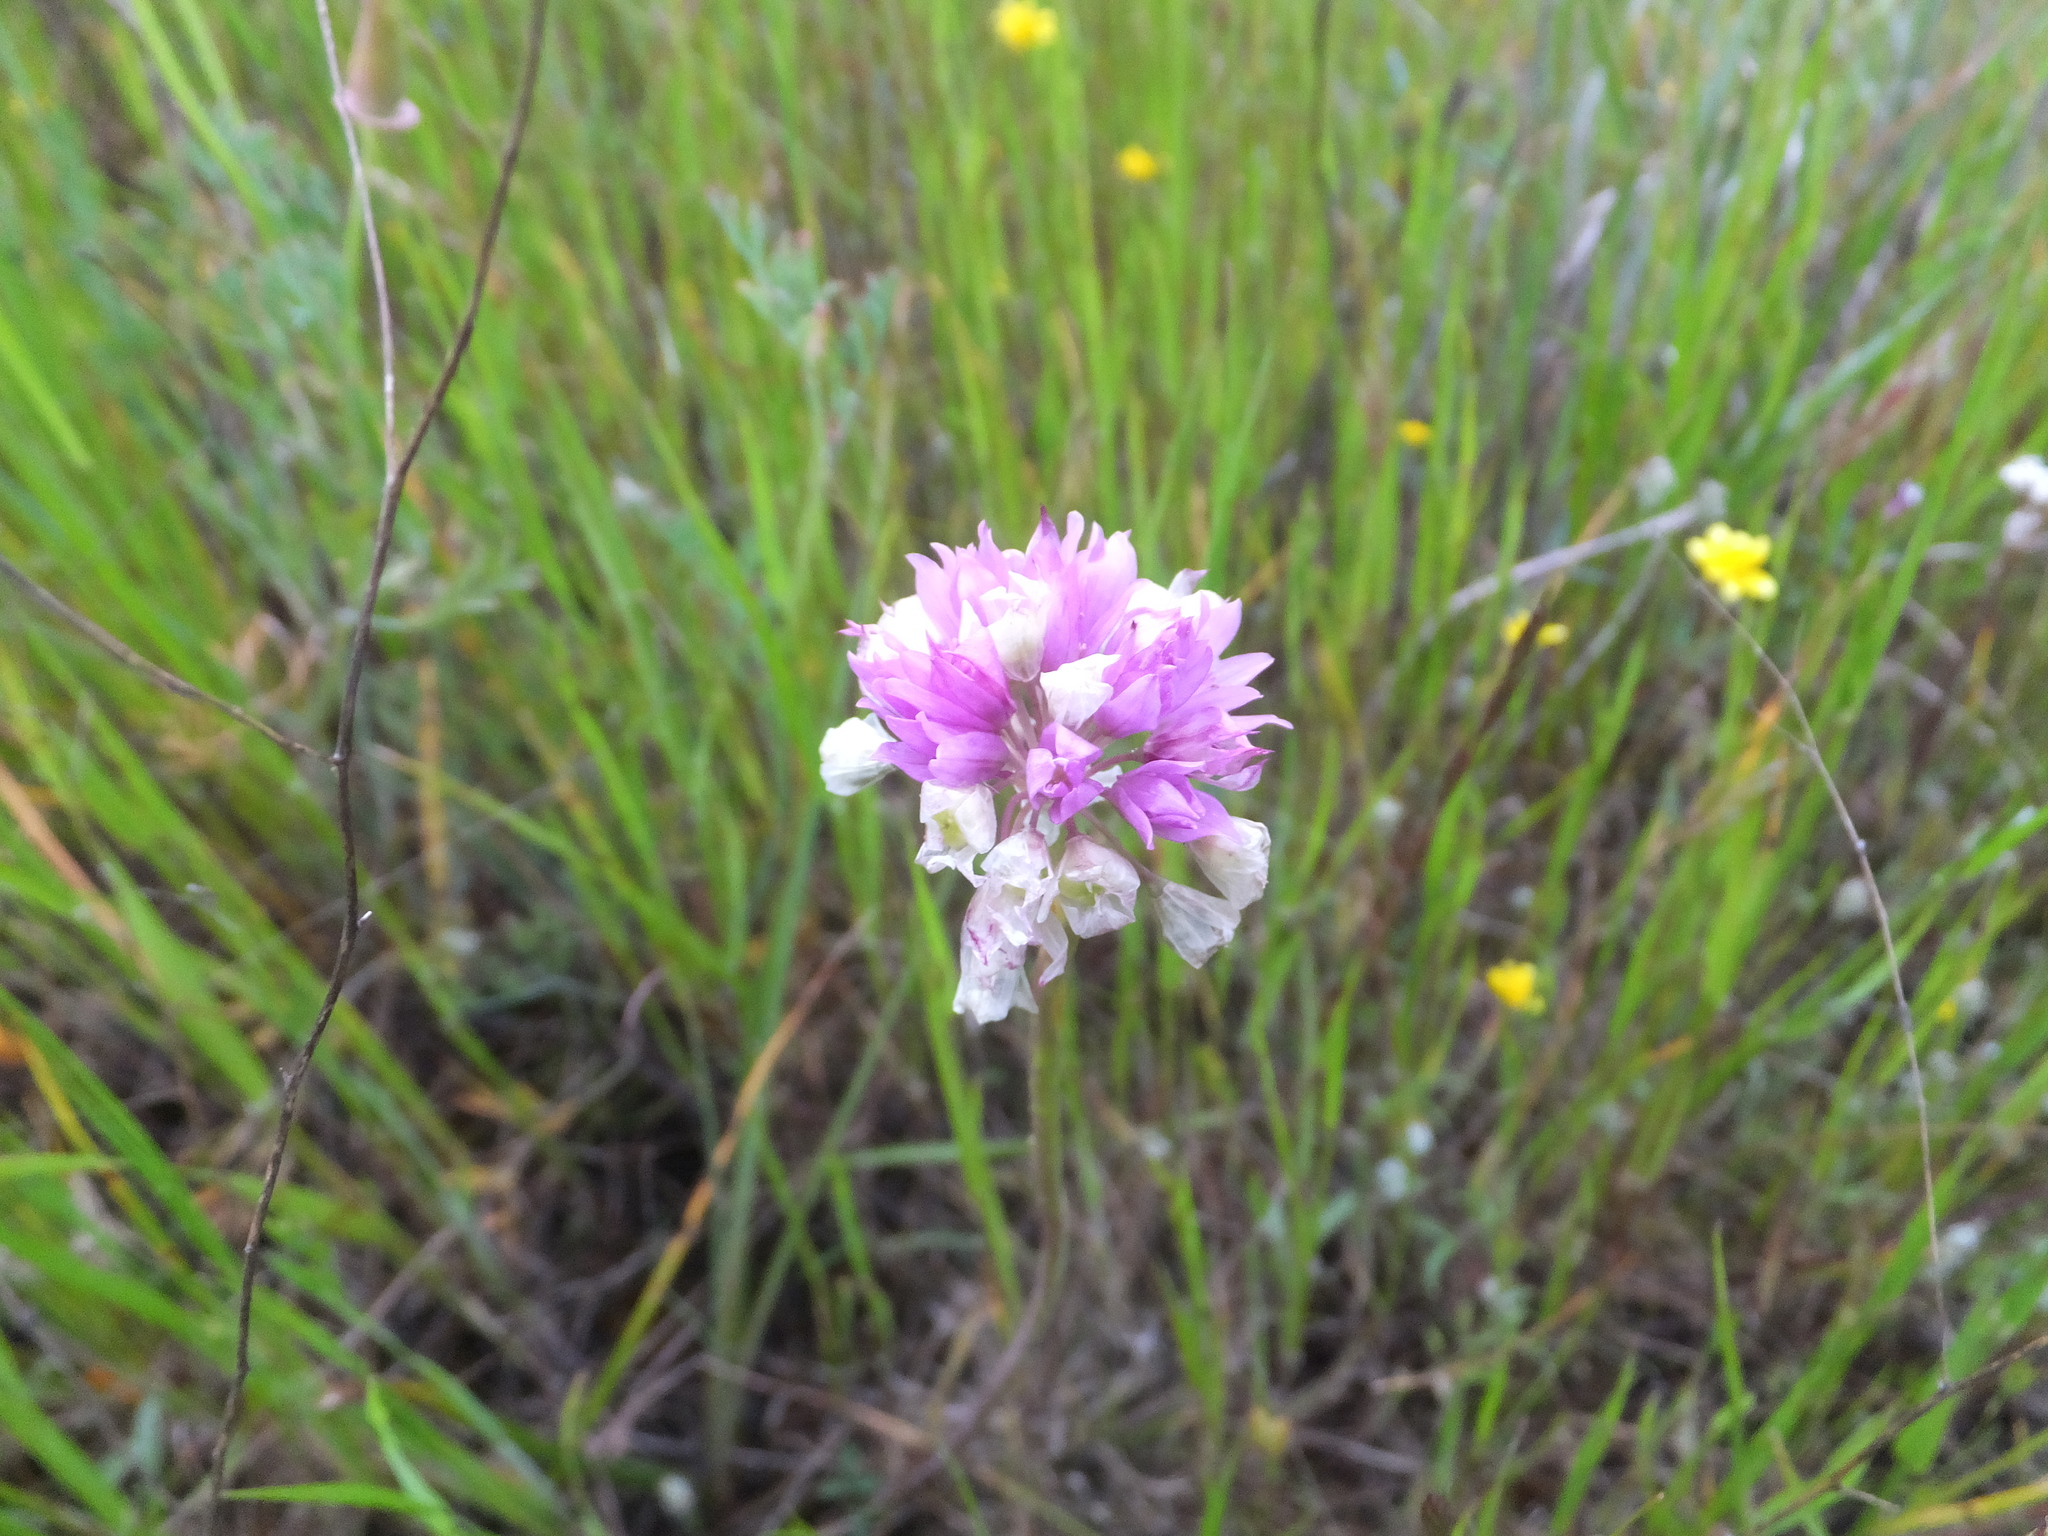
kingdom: Plantae
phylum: Tracheophyta
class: Liliopsida
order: Asparagales
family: Amaryllidaceae
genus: Allium
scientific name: Allium serra
